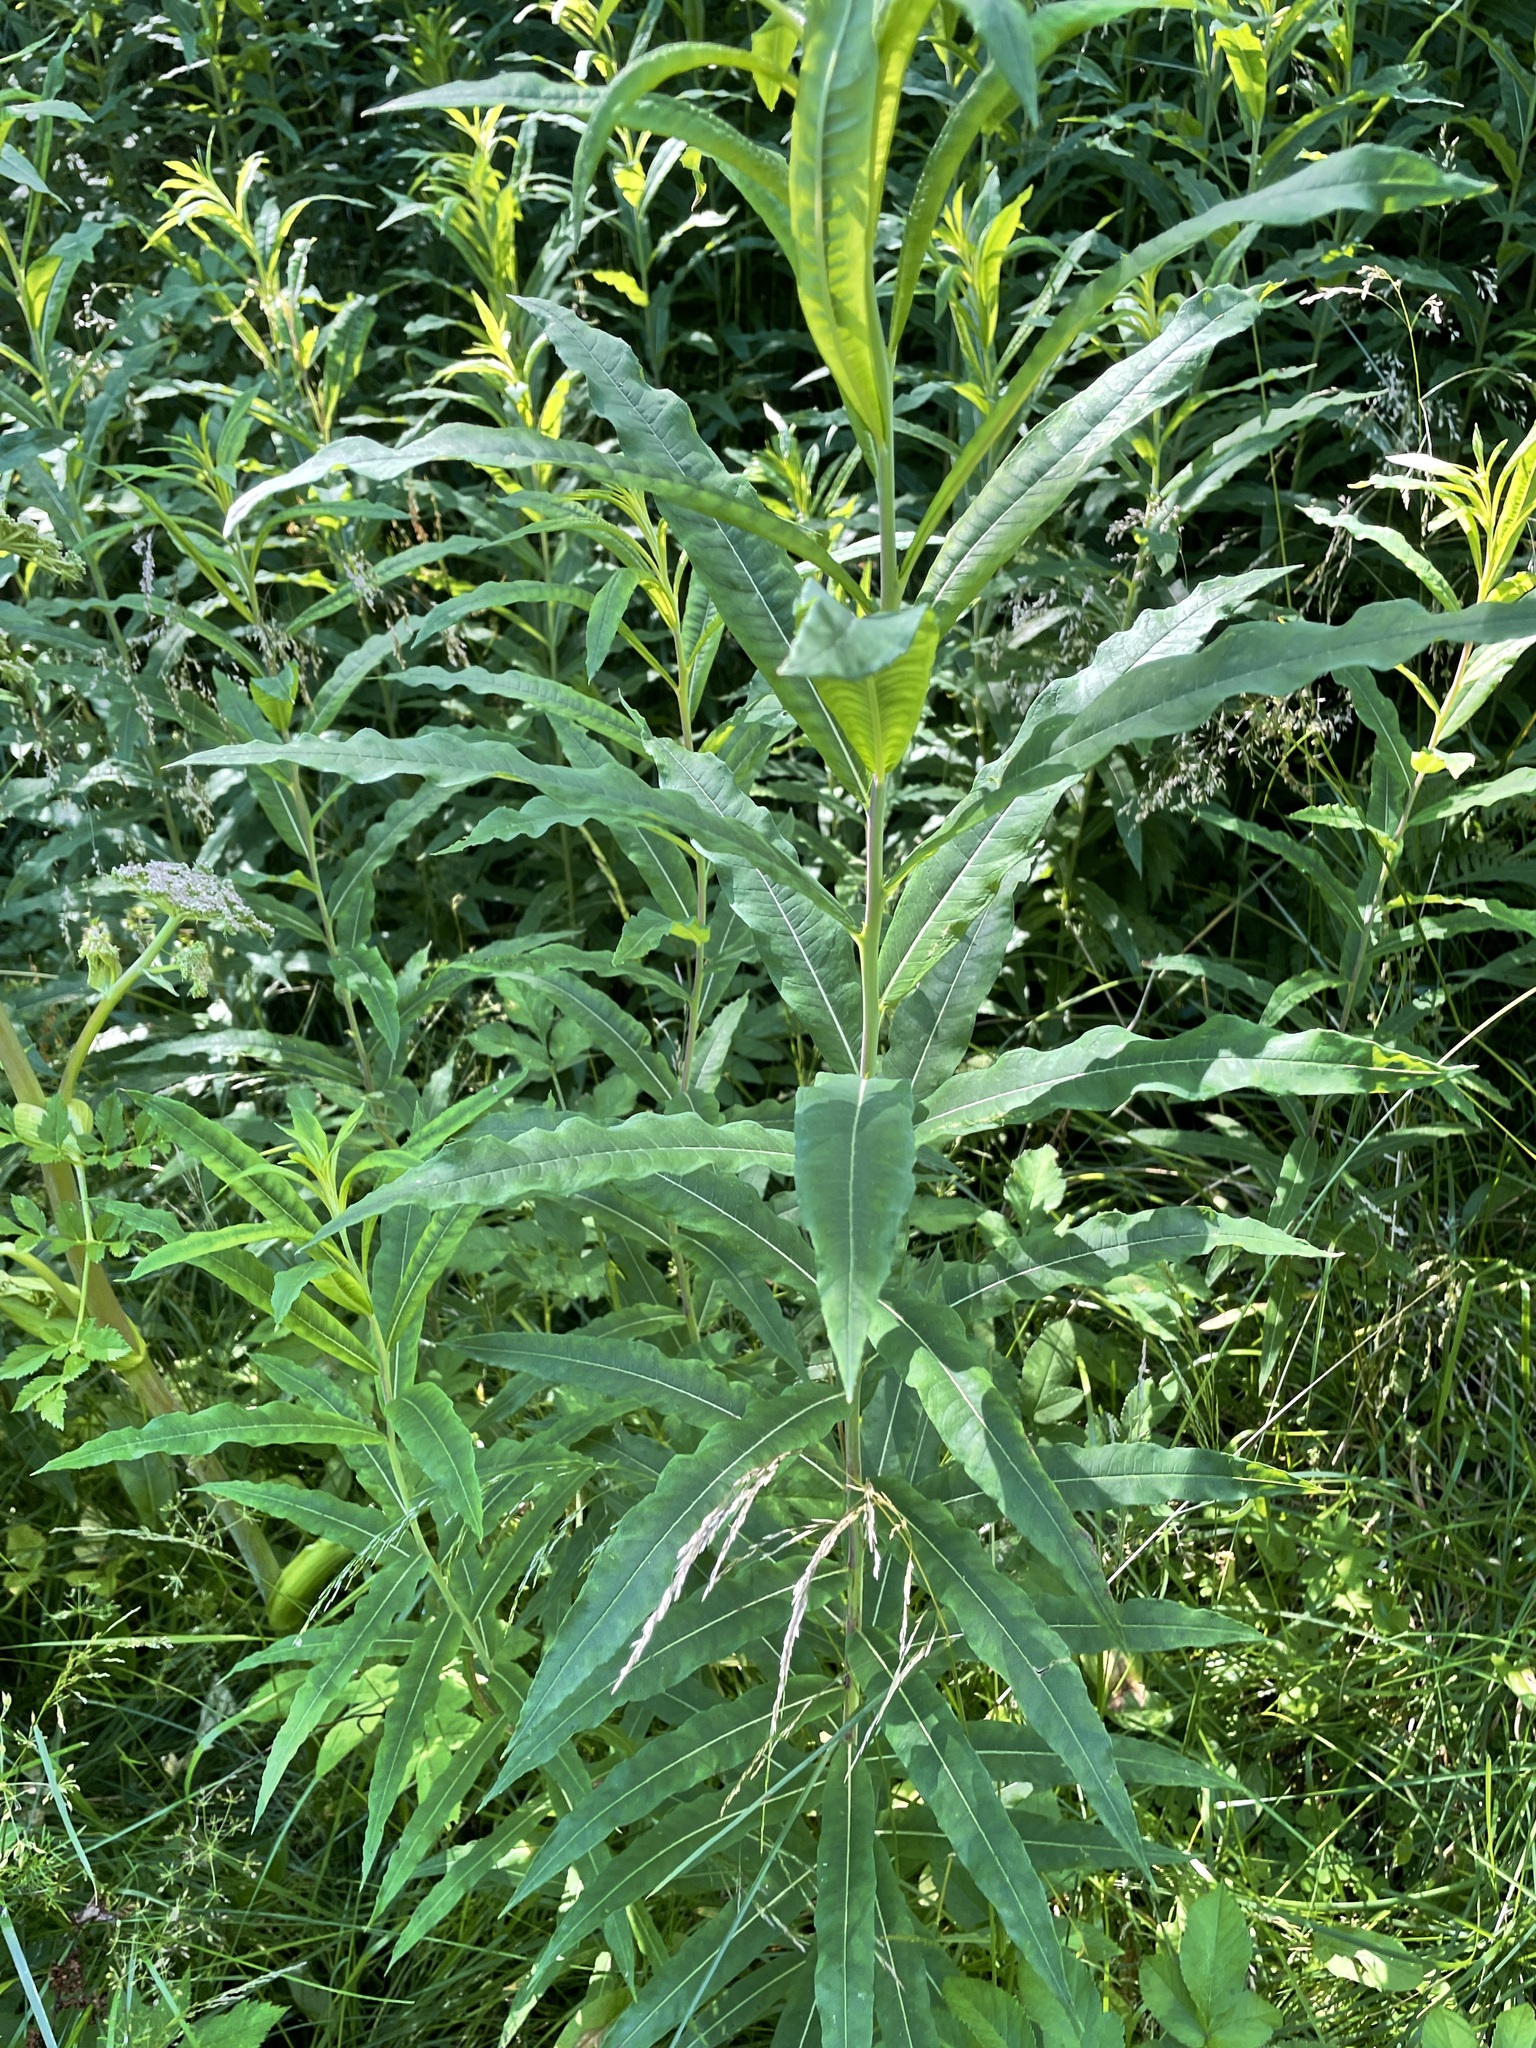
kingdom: Plantae
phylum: Tracheophyta
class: Magnoliopsida
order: Myrtales
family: Onagraceae
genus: Chamaenerion
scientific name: Chamaenerion angustifolium
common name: Fireweed
